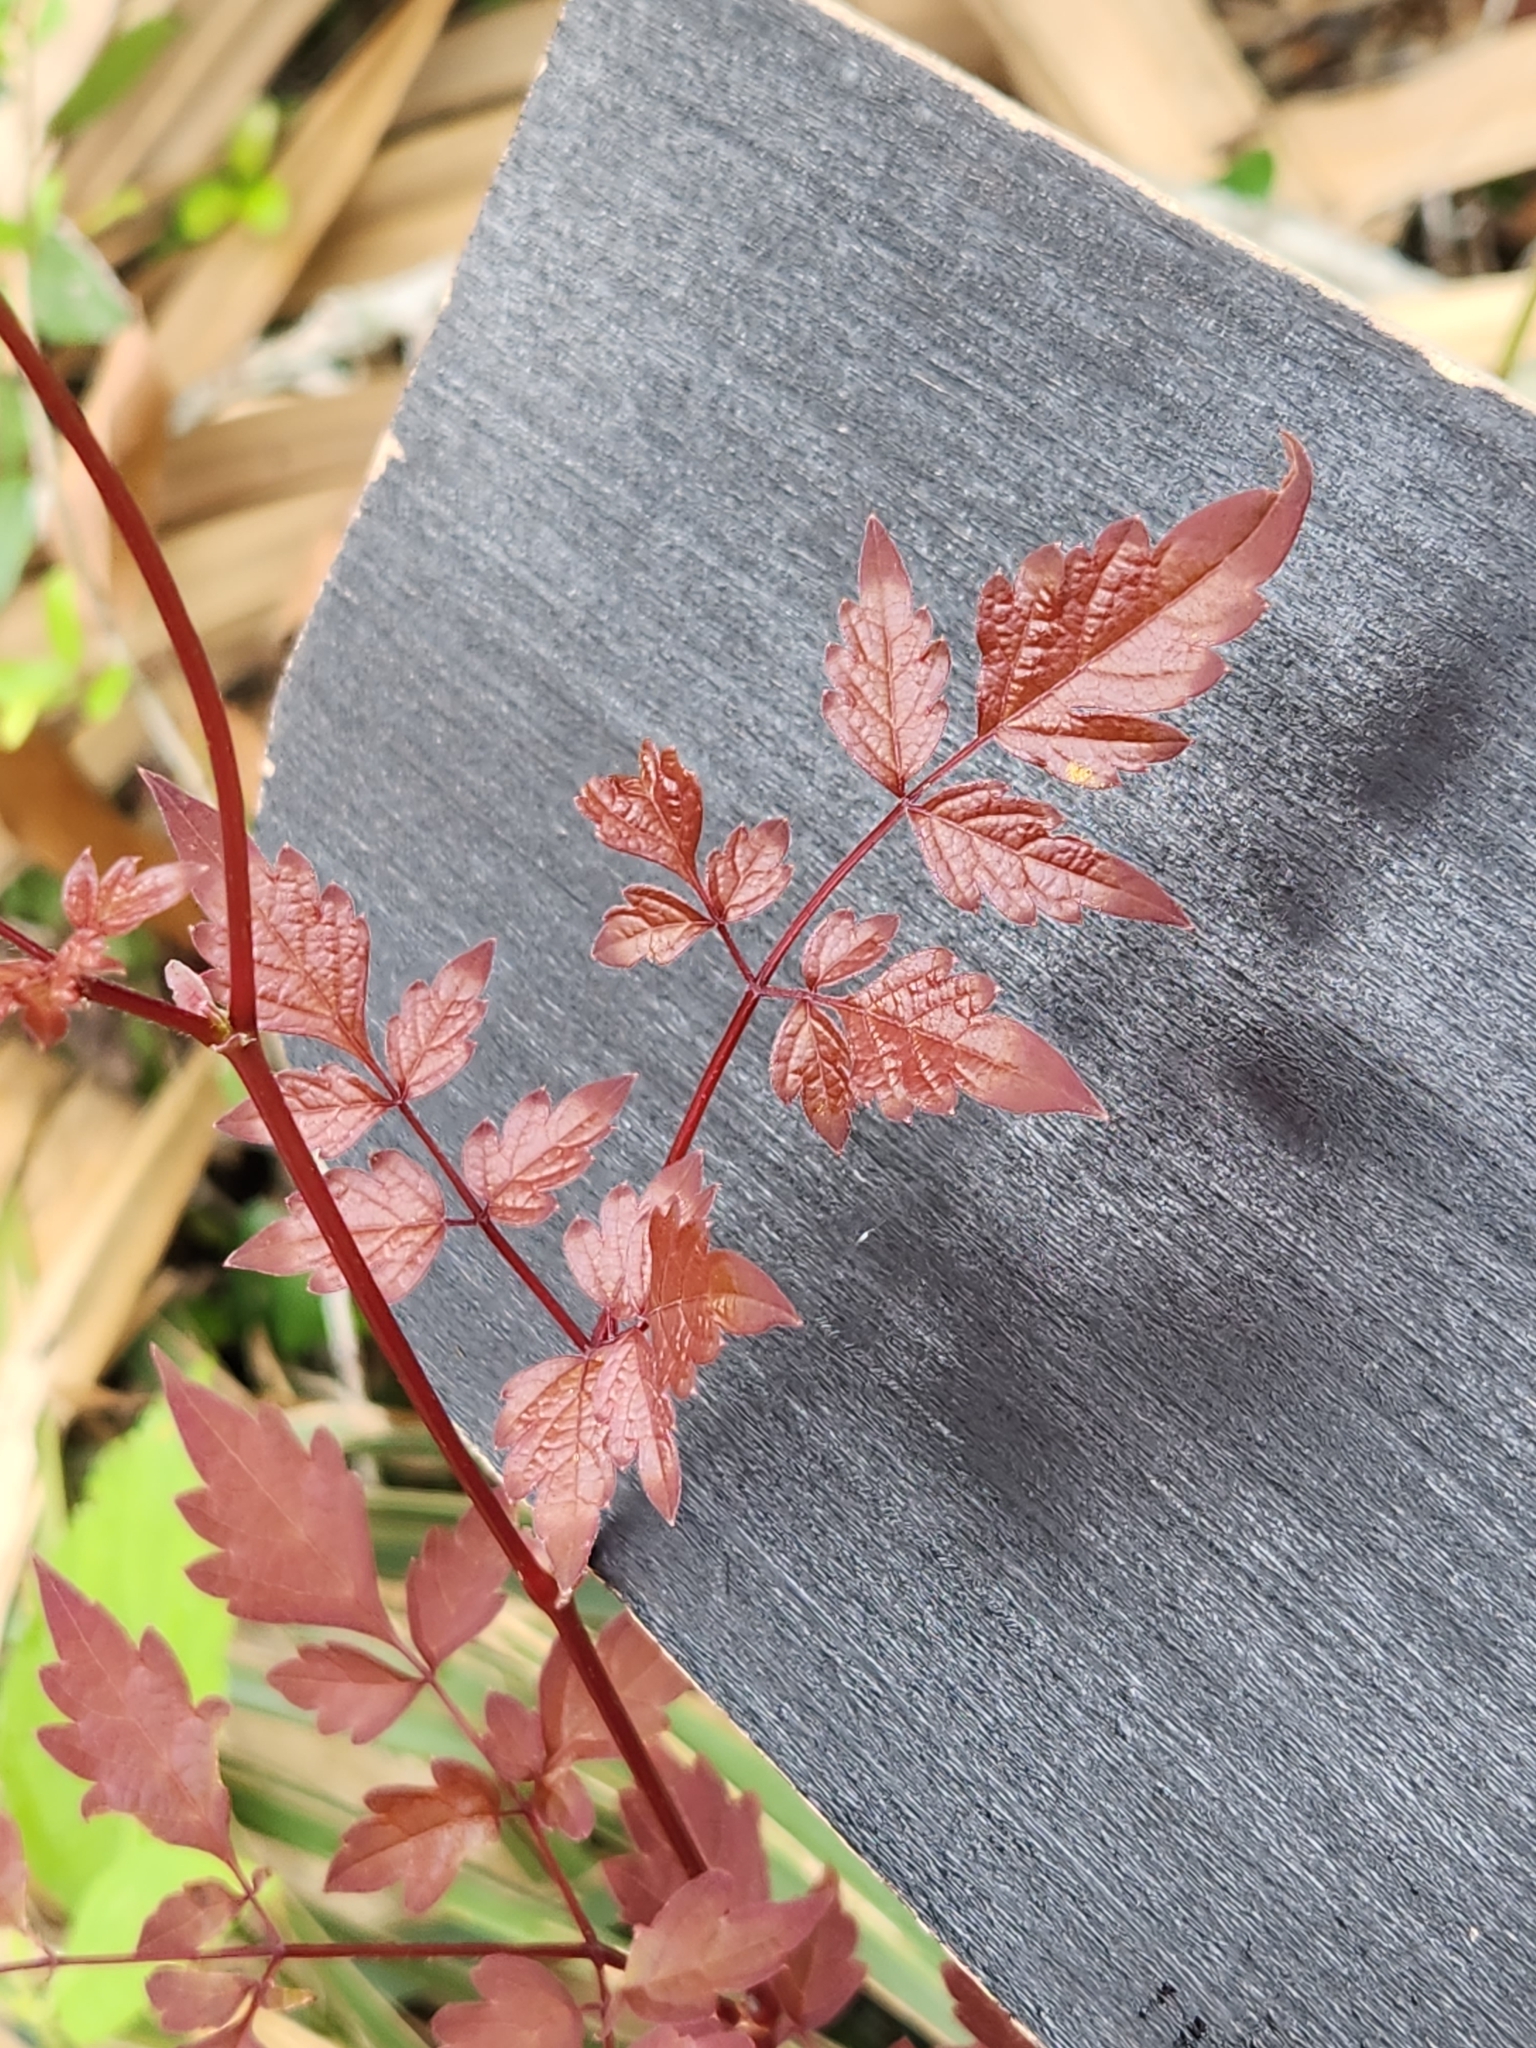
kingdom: Plantae
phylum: Tracheophyta
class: Magnoliopsida
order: Vitales
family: Vitaceae
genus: Nekemias
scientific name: Nekemias arborea
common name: Peppervine
